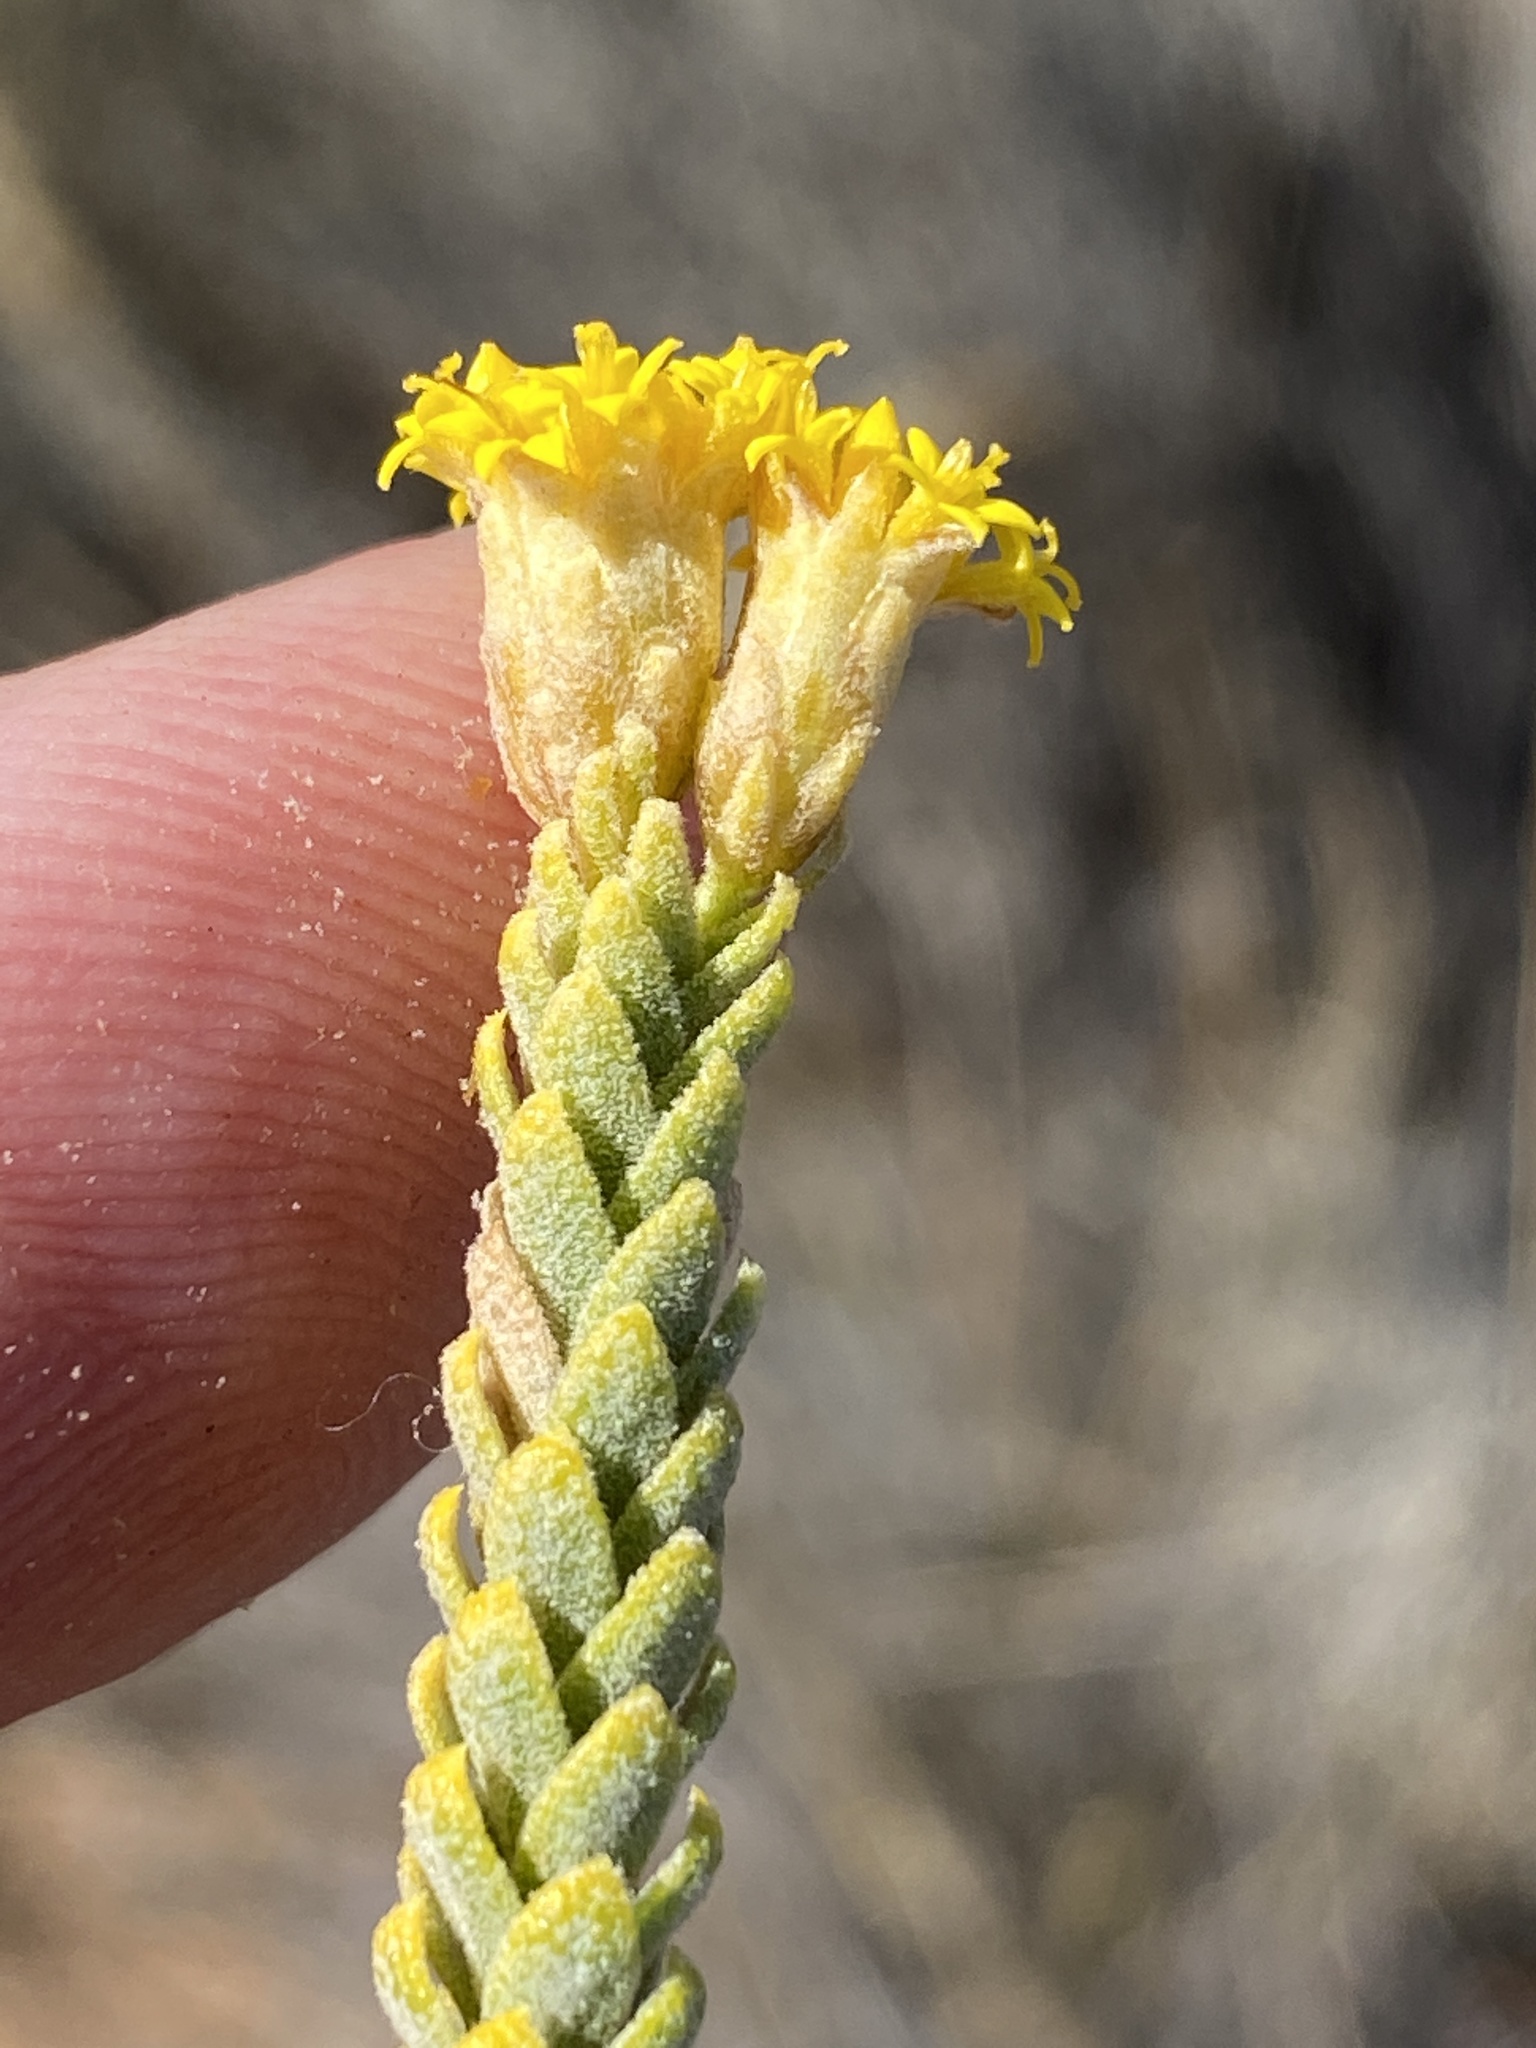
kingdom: Plantae
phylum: Tracheophyta
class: Magnoliopsida
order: Asterales
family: Asteraceae
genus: Athanasia
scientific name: Athanasia gyrosa
